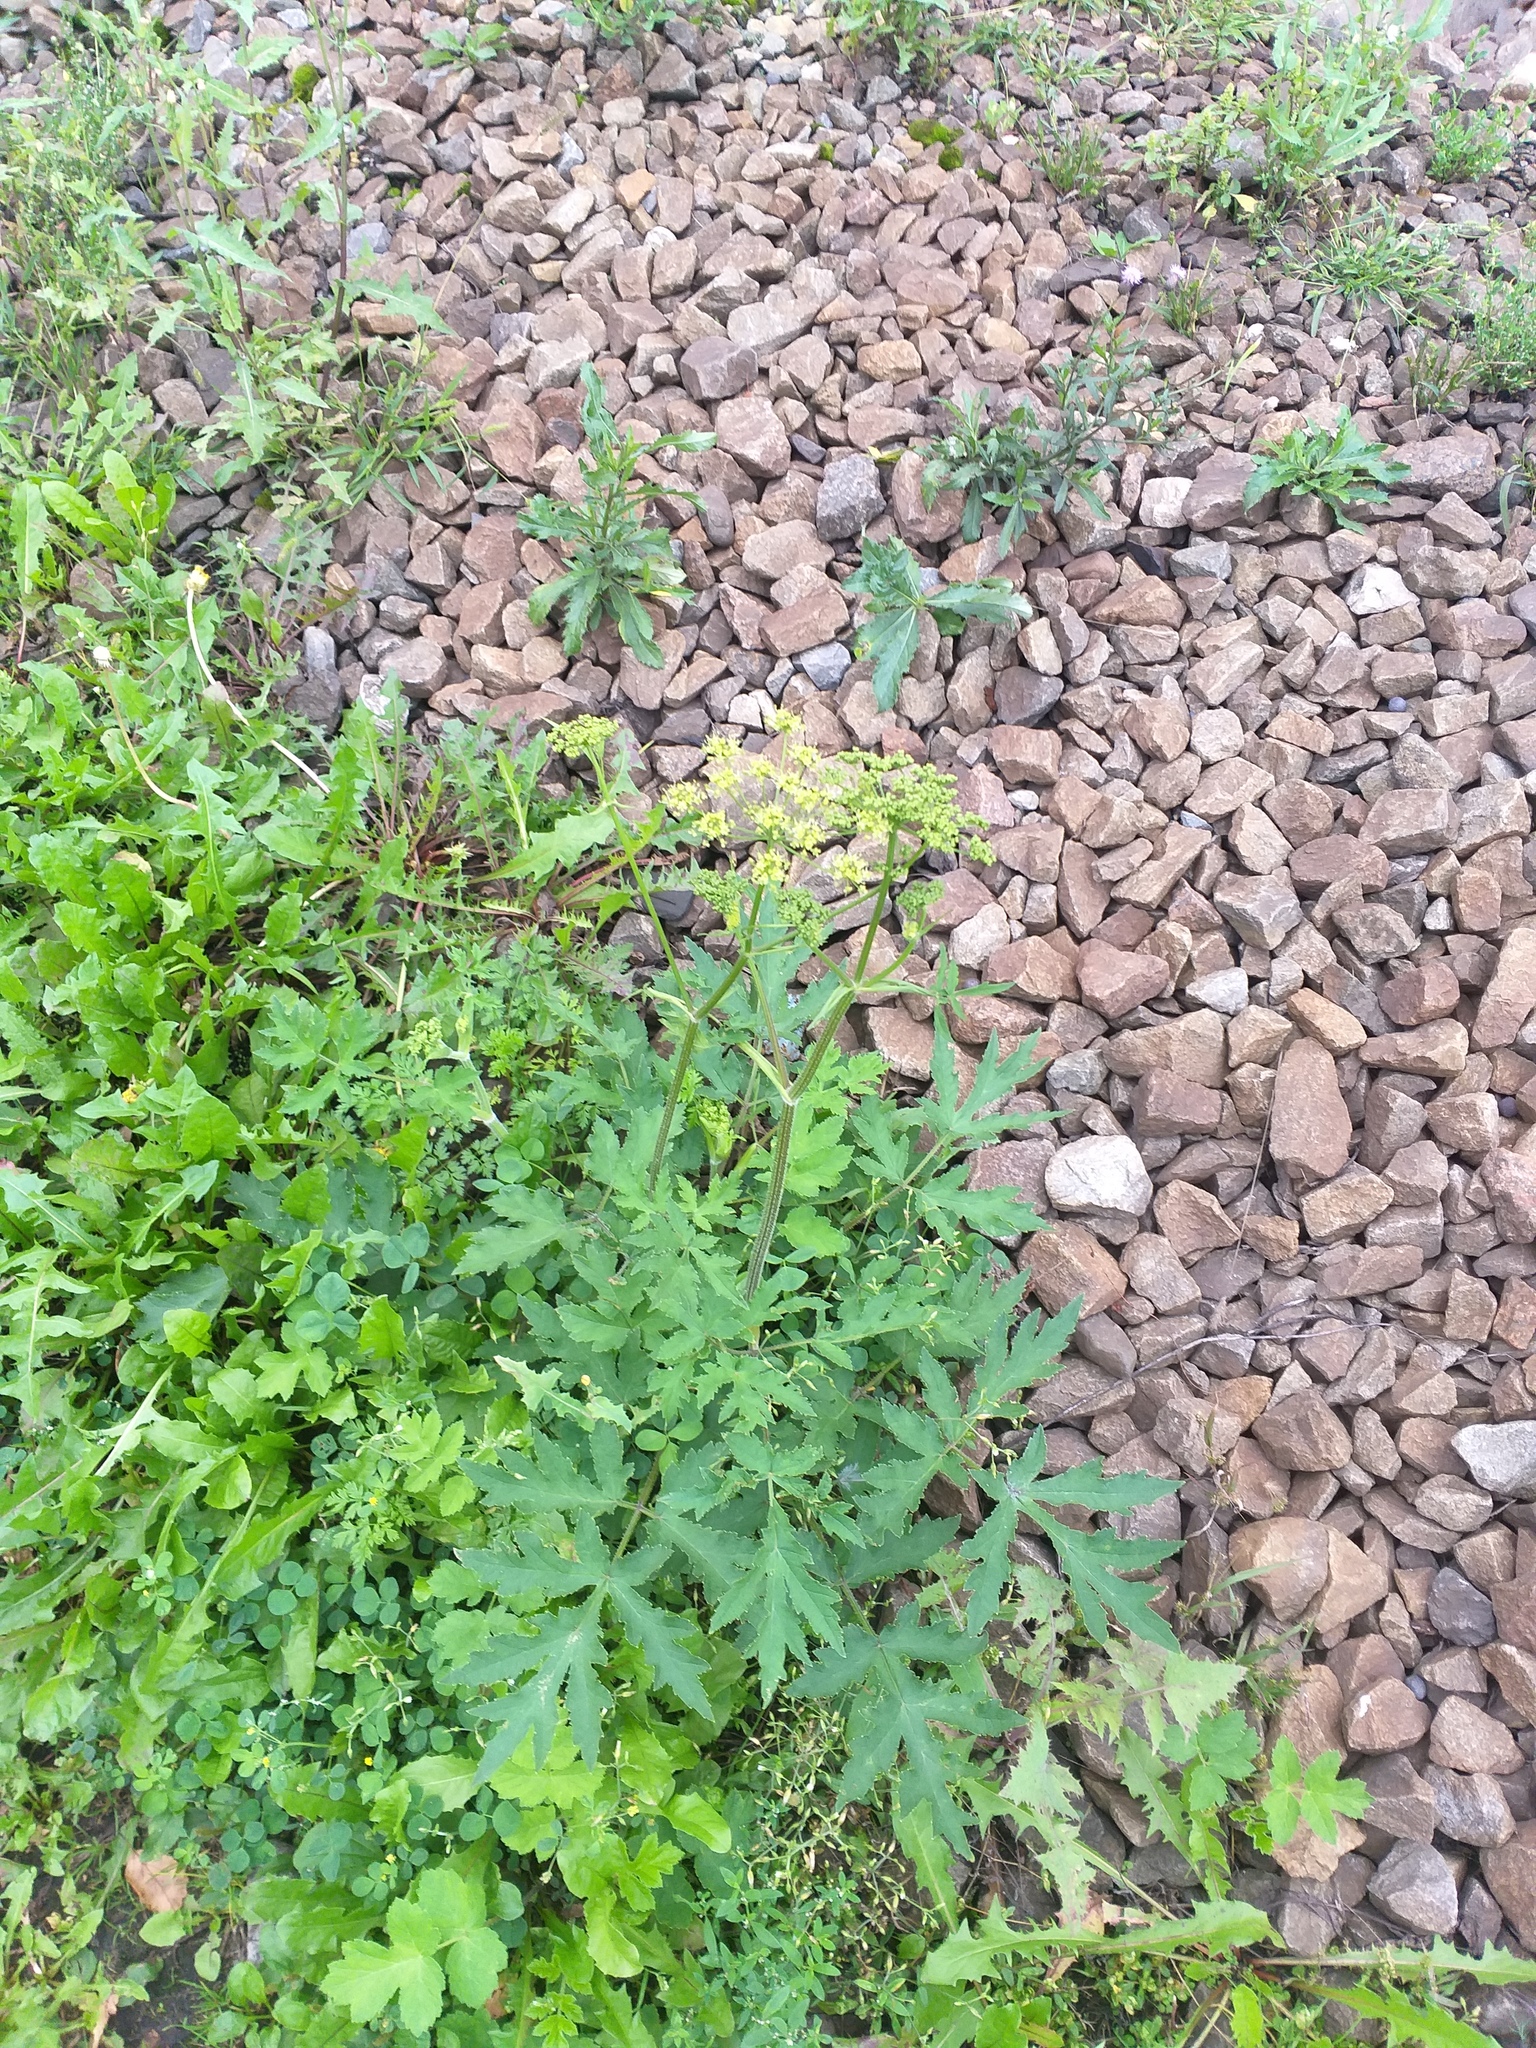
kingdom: Plantae
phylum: Tracheophyta
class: Magnoliopsida
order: Apiales
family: Apiaceae
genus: Heracleum
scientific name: Heracleum sphondylium
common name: Hogweed
